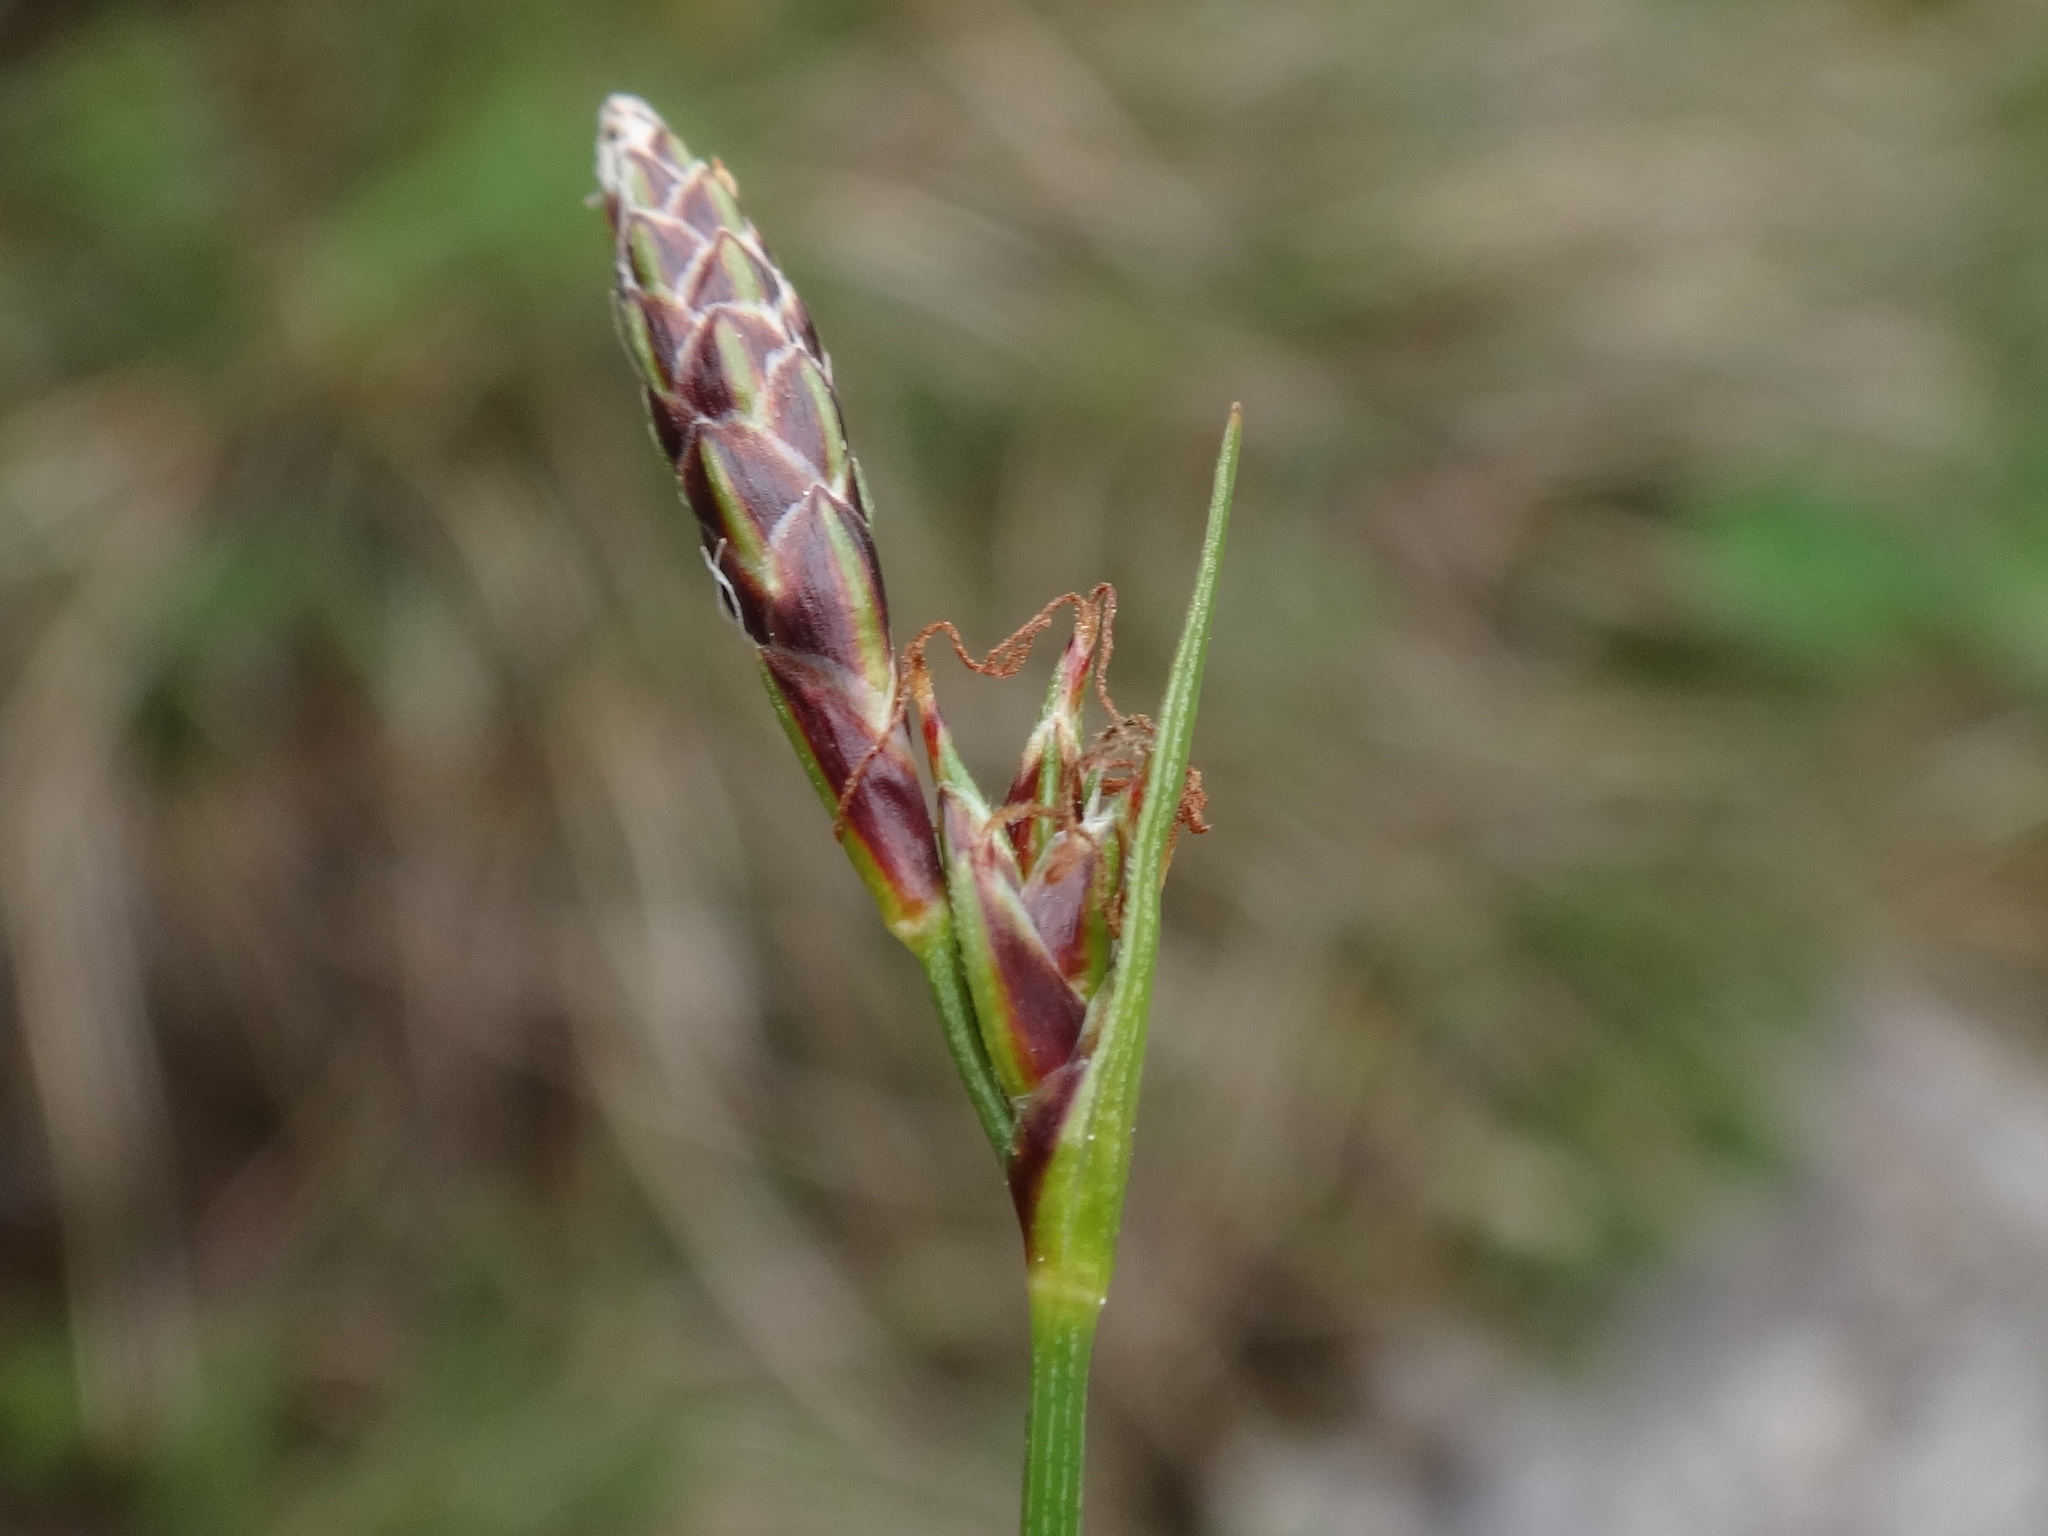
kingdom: Plantae
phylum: Tracheophyta
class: Liliopsida
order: Poales
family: Cyperaceae
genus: Carex
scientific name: Carex mucronata
